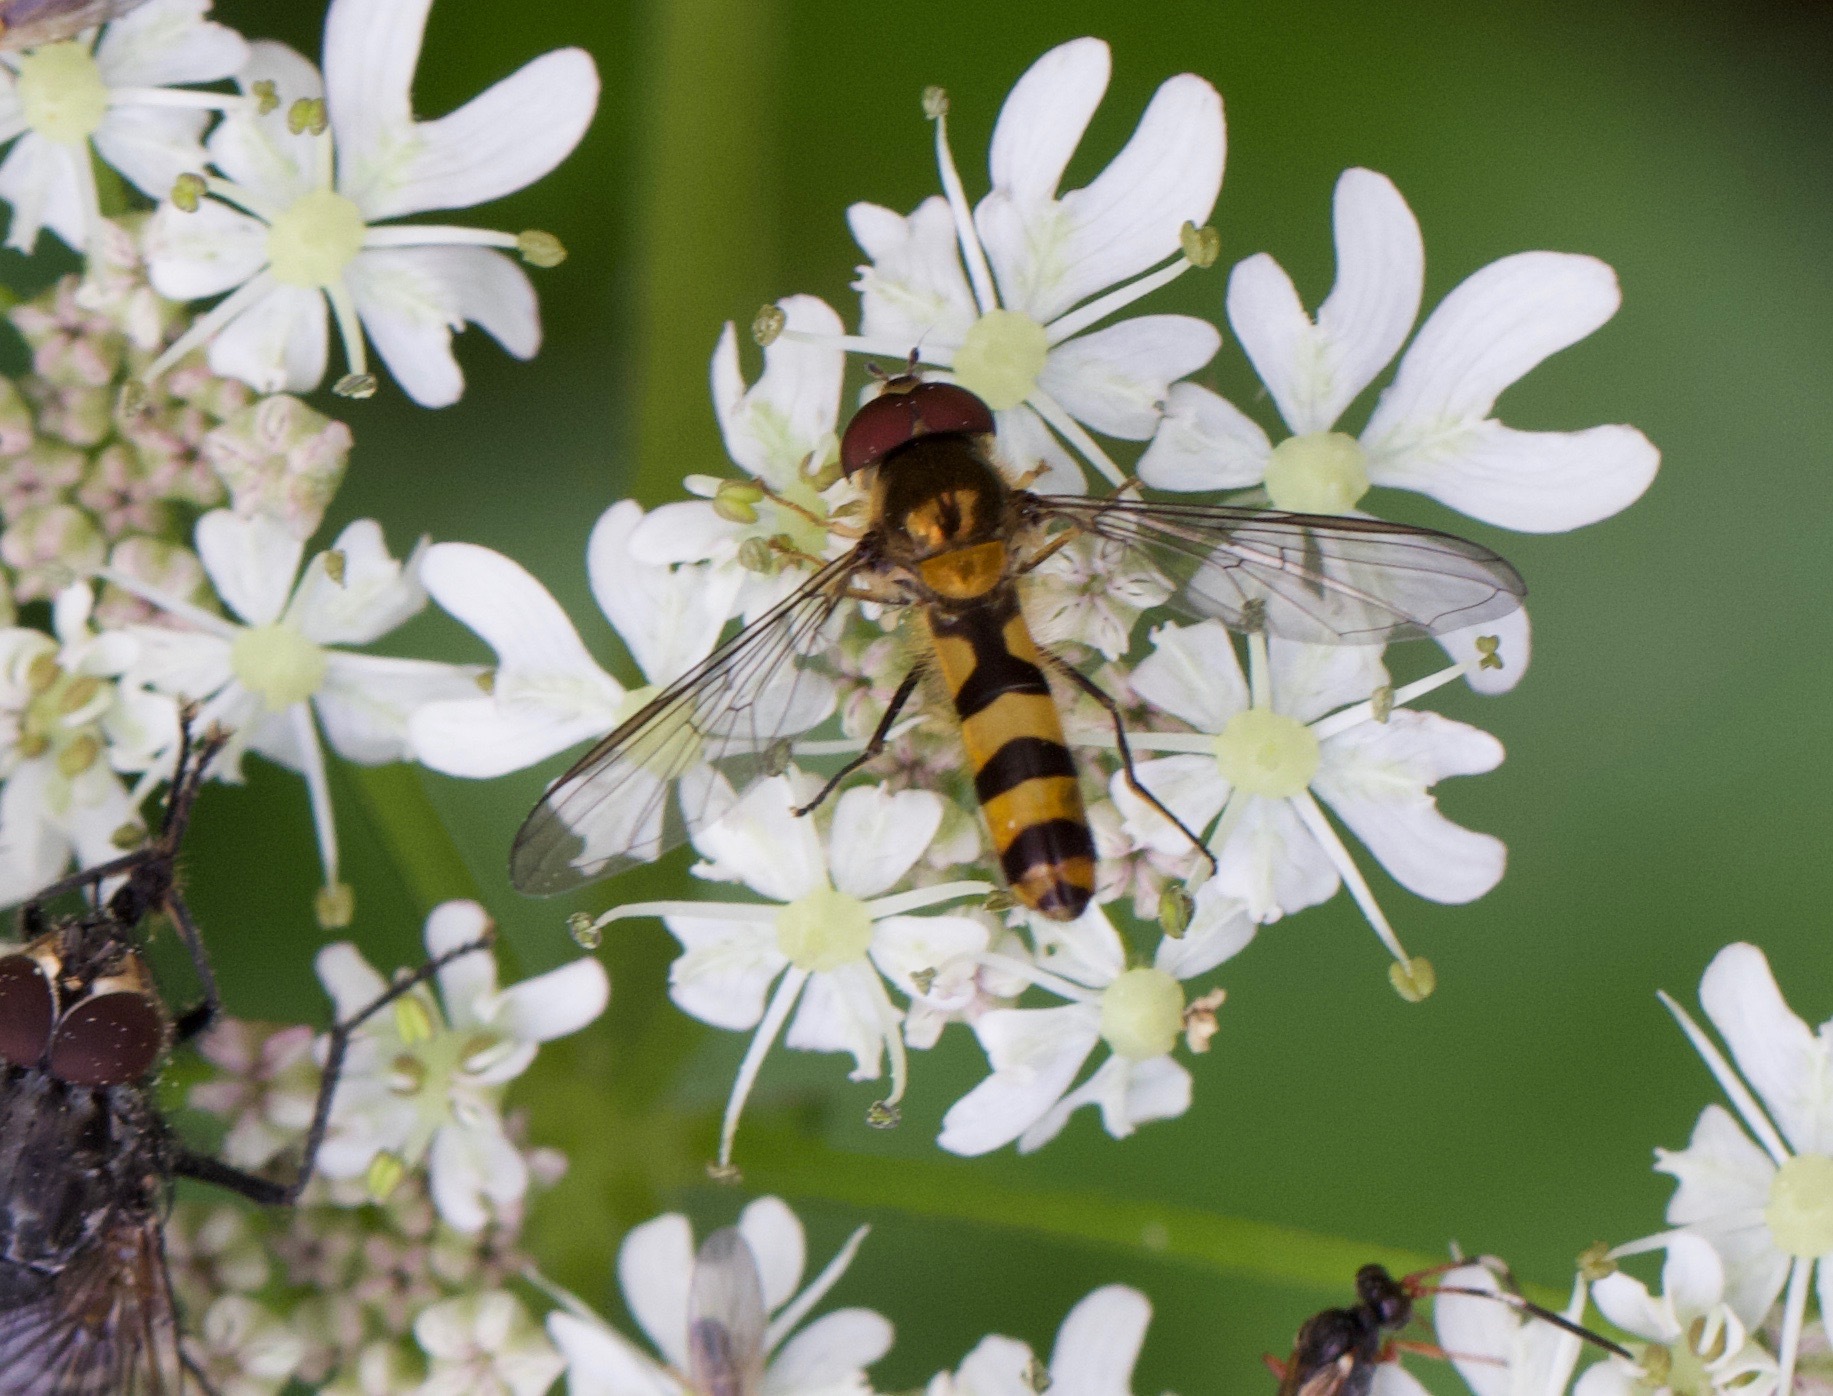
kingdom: Animalia
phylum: Arthropoda
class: Insecta
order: Diptera
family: Syrphidae
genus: Meliscaeva
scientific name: Meliscaeva cinctella
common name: American thintail fly
